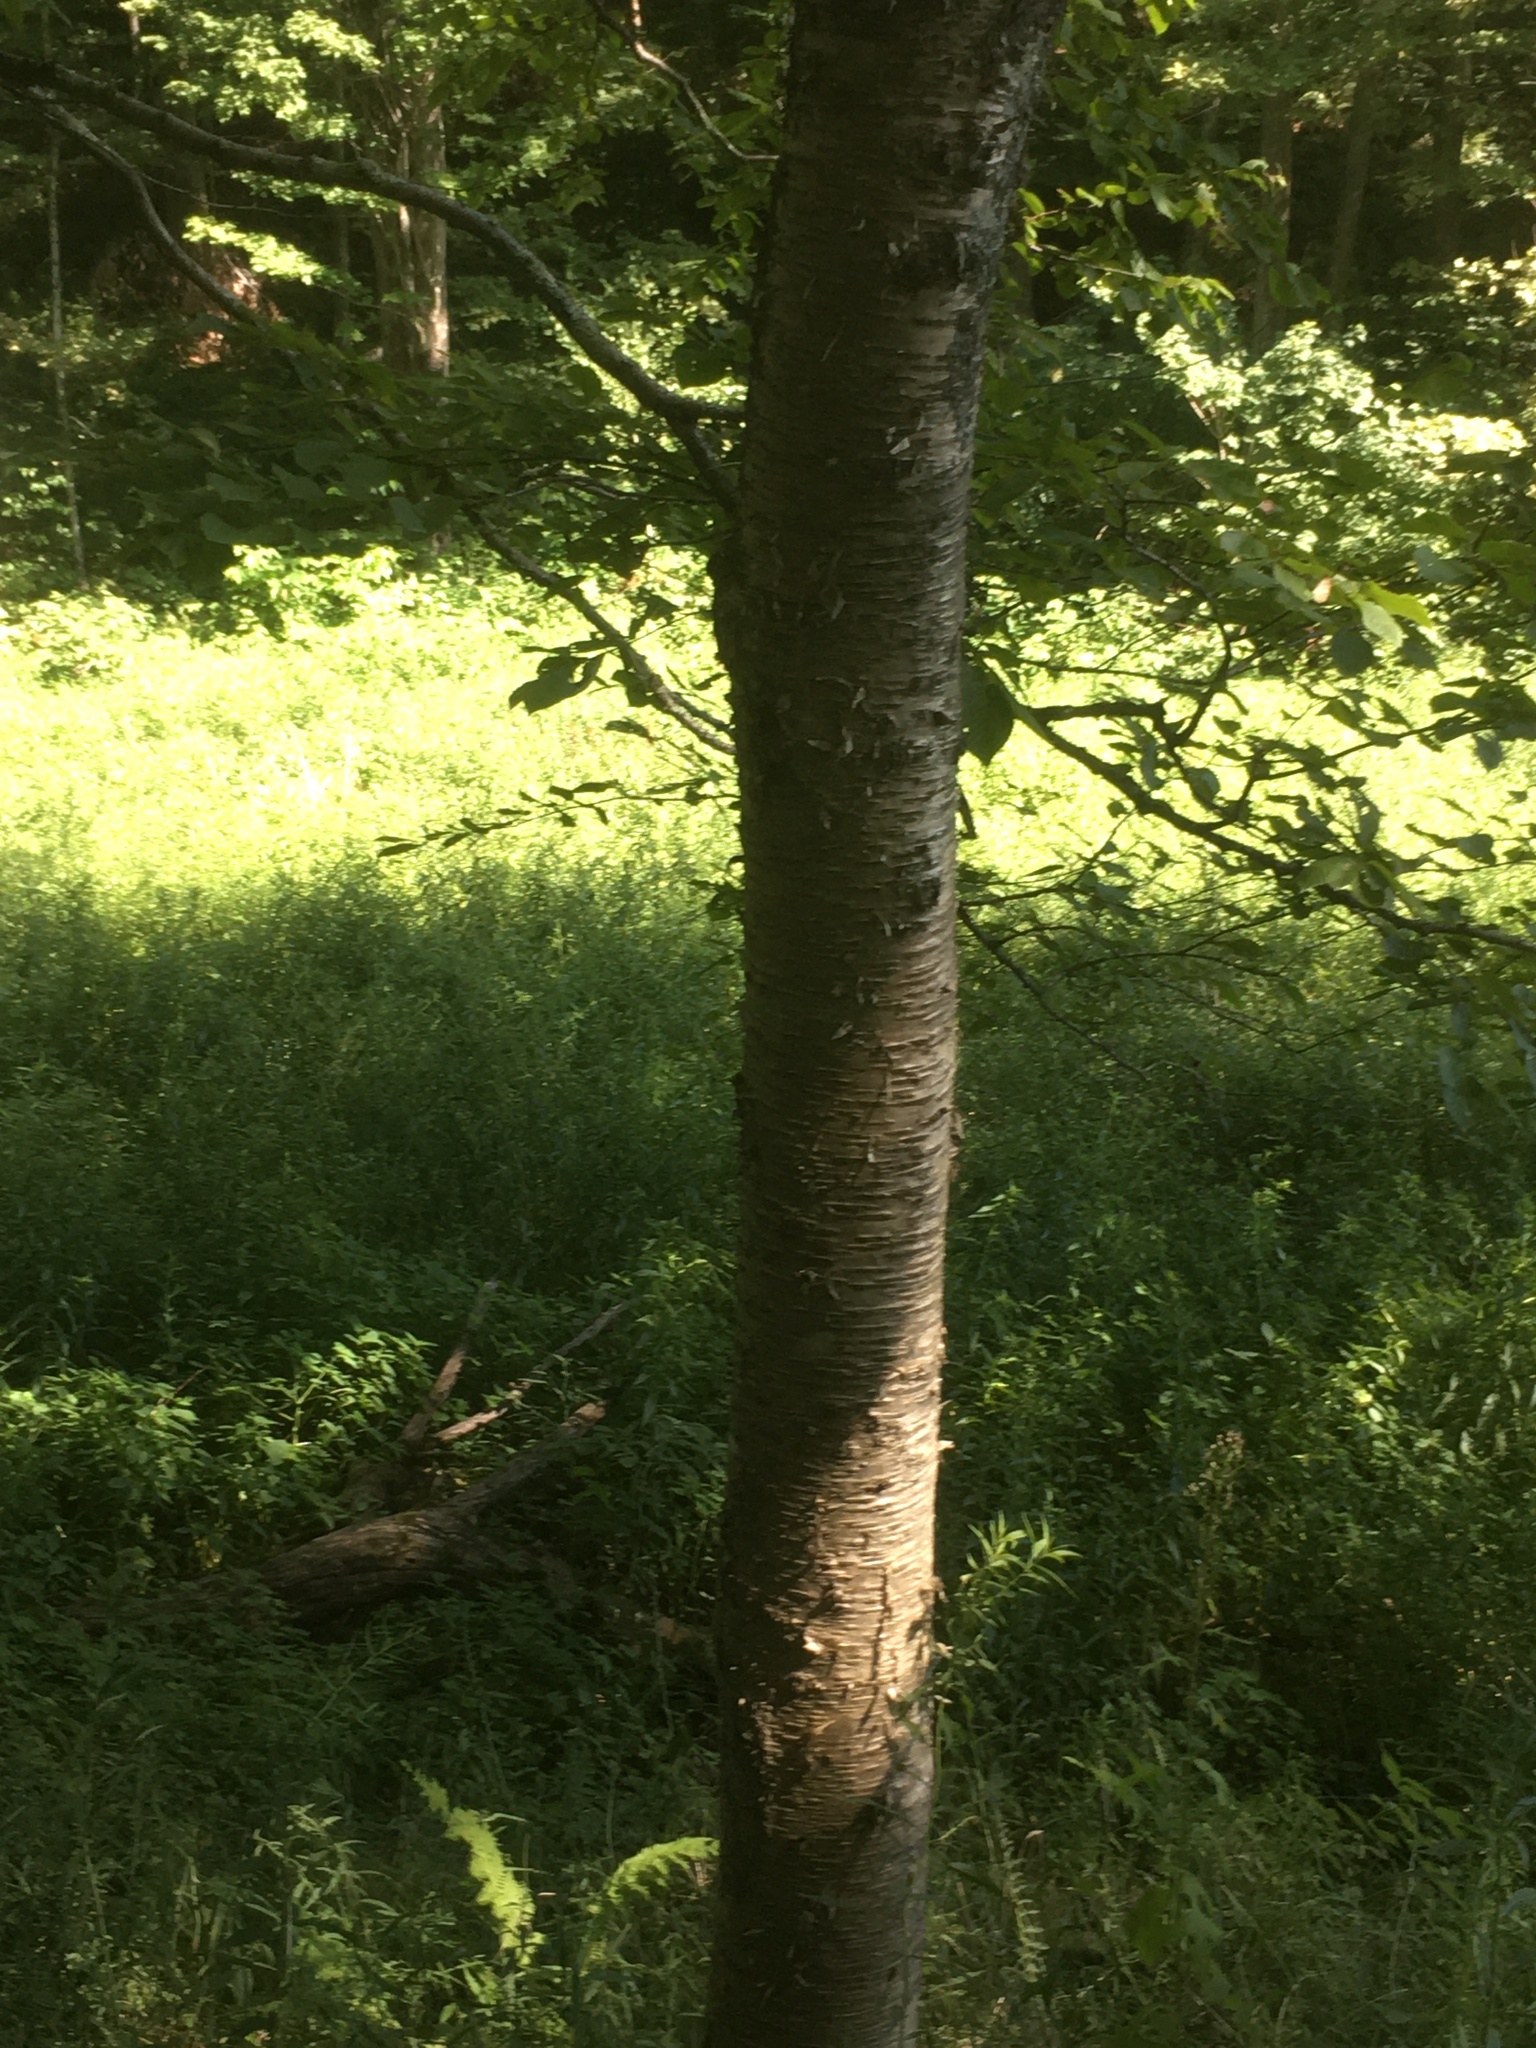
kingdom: Plantae
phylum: Tracheophyta
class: Magnoliopsida
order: Fagales
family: Betulaceae
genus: Betula
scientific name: Betula alleghaniensis
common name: Yellow birch
